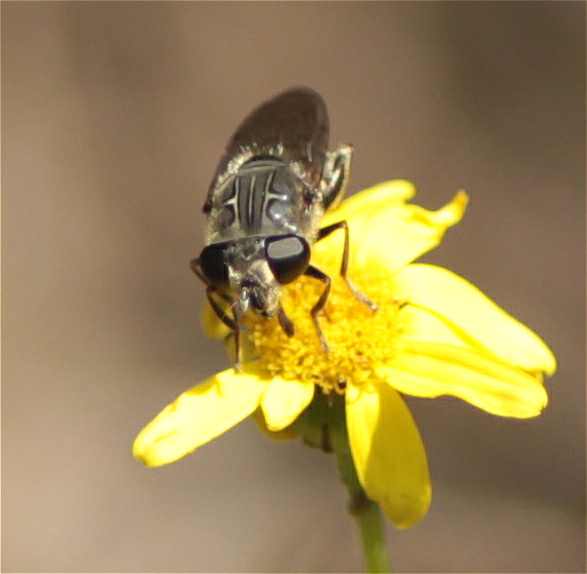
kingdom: Animalia
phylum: Arthropoda
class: Insecta
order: Diptera
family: Syrphidae
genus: Asemosyrphus
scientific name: Asemosyrphus
